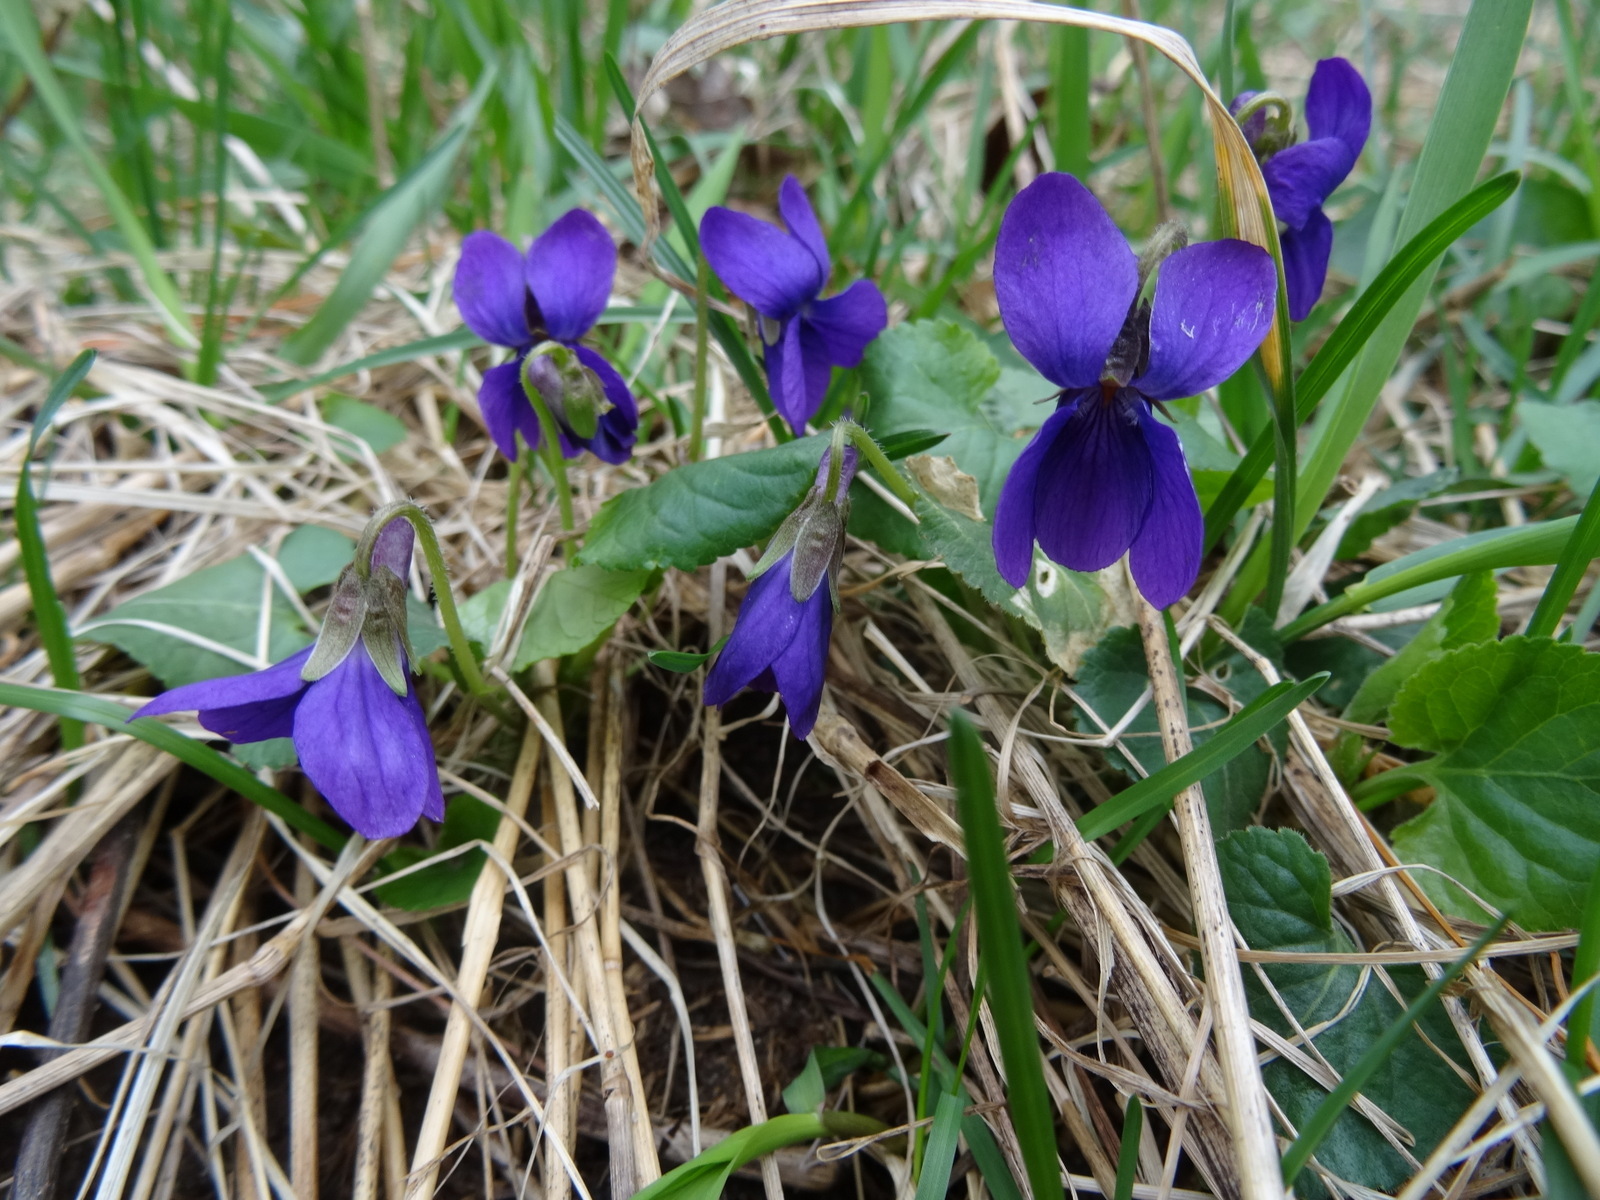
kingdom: Plantae
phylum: Tracheophyta
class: Magnoliopsida
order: Malpighiales
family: Violaceae
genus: Viola
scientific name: Viola sororia
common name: Dooryard violet
